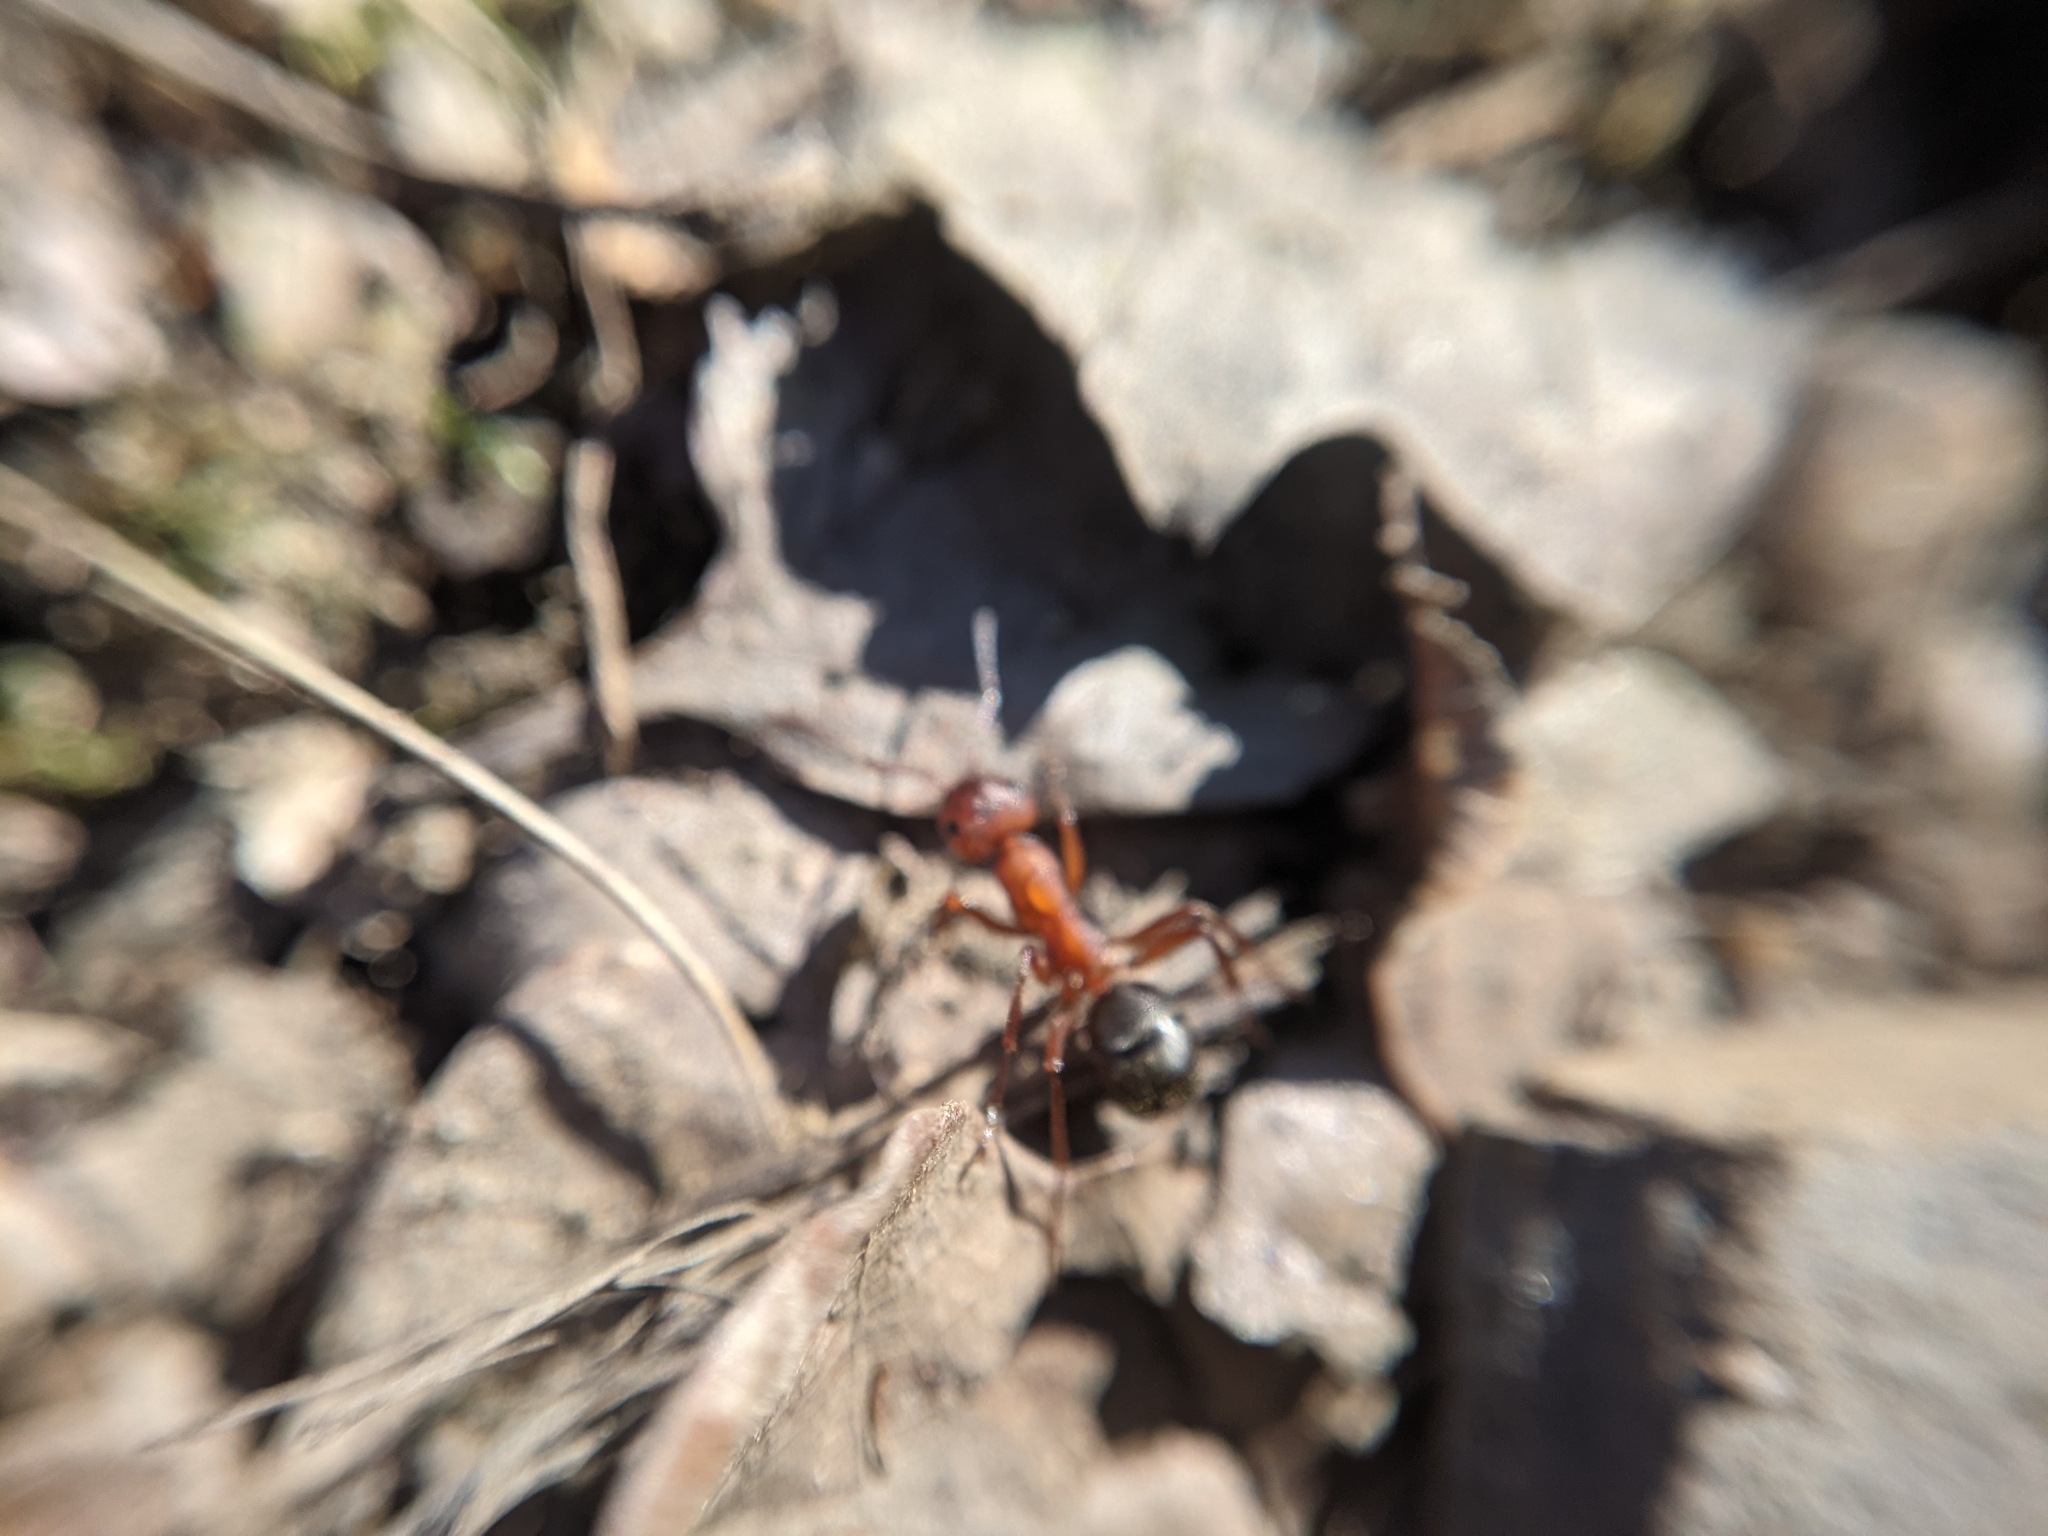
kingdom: Animalia
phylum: Arthropoda
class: Insecta
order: Hymenoptera
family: Formicidae
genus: Formica
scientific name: Formica sanguinea
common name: Blood-red ant
